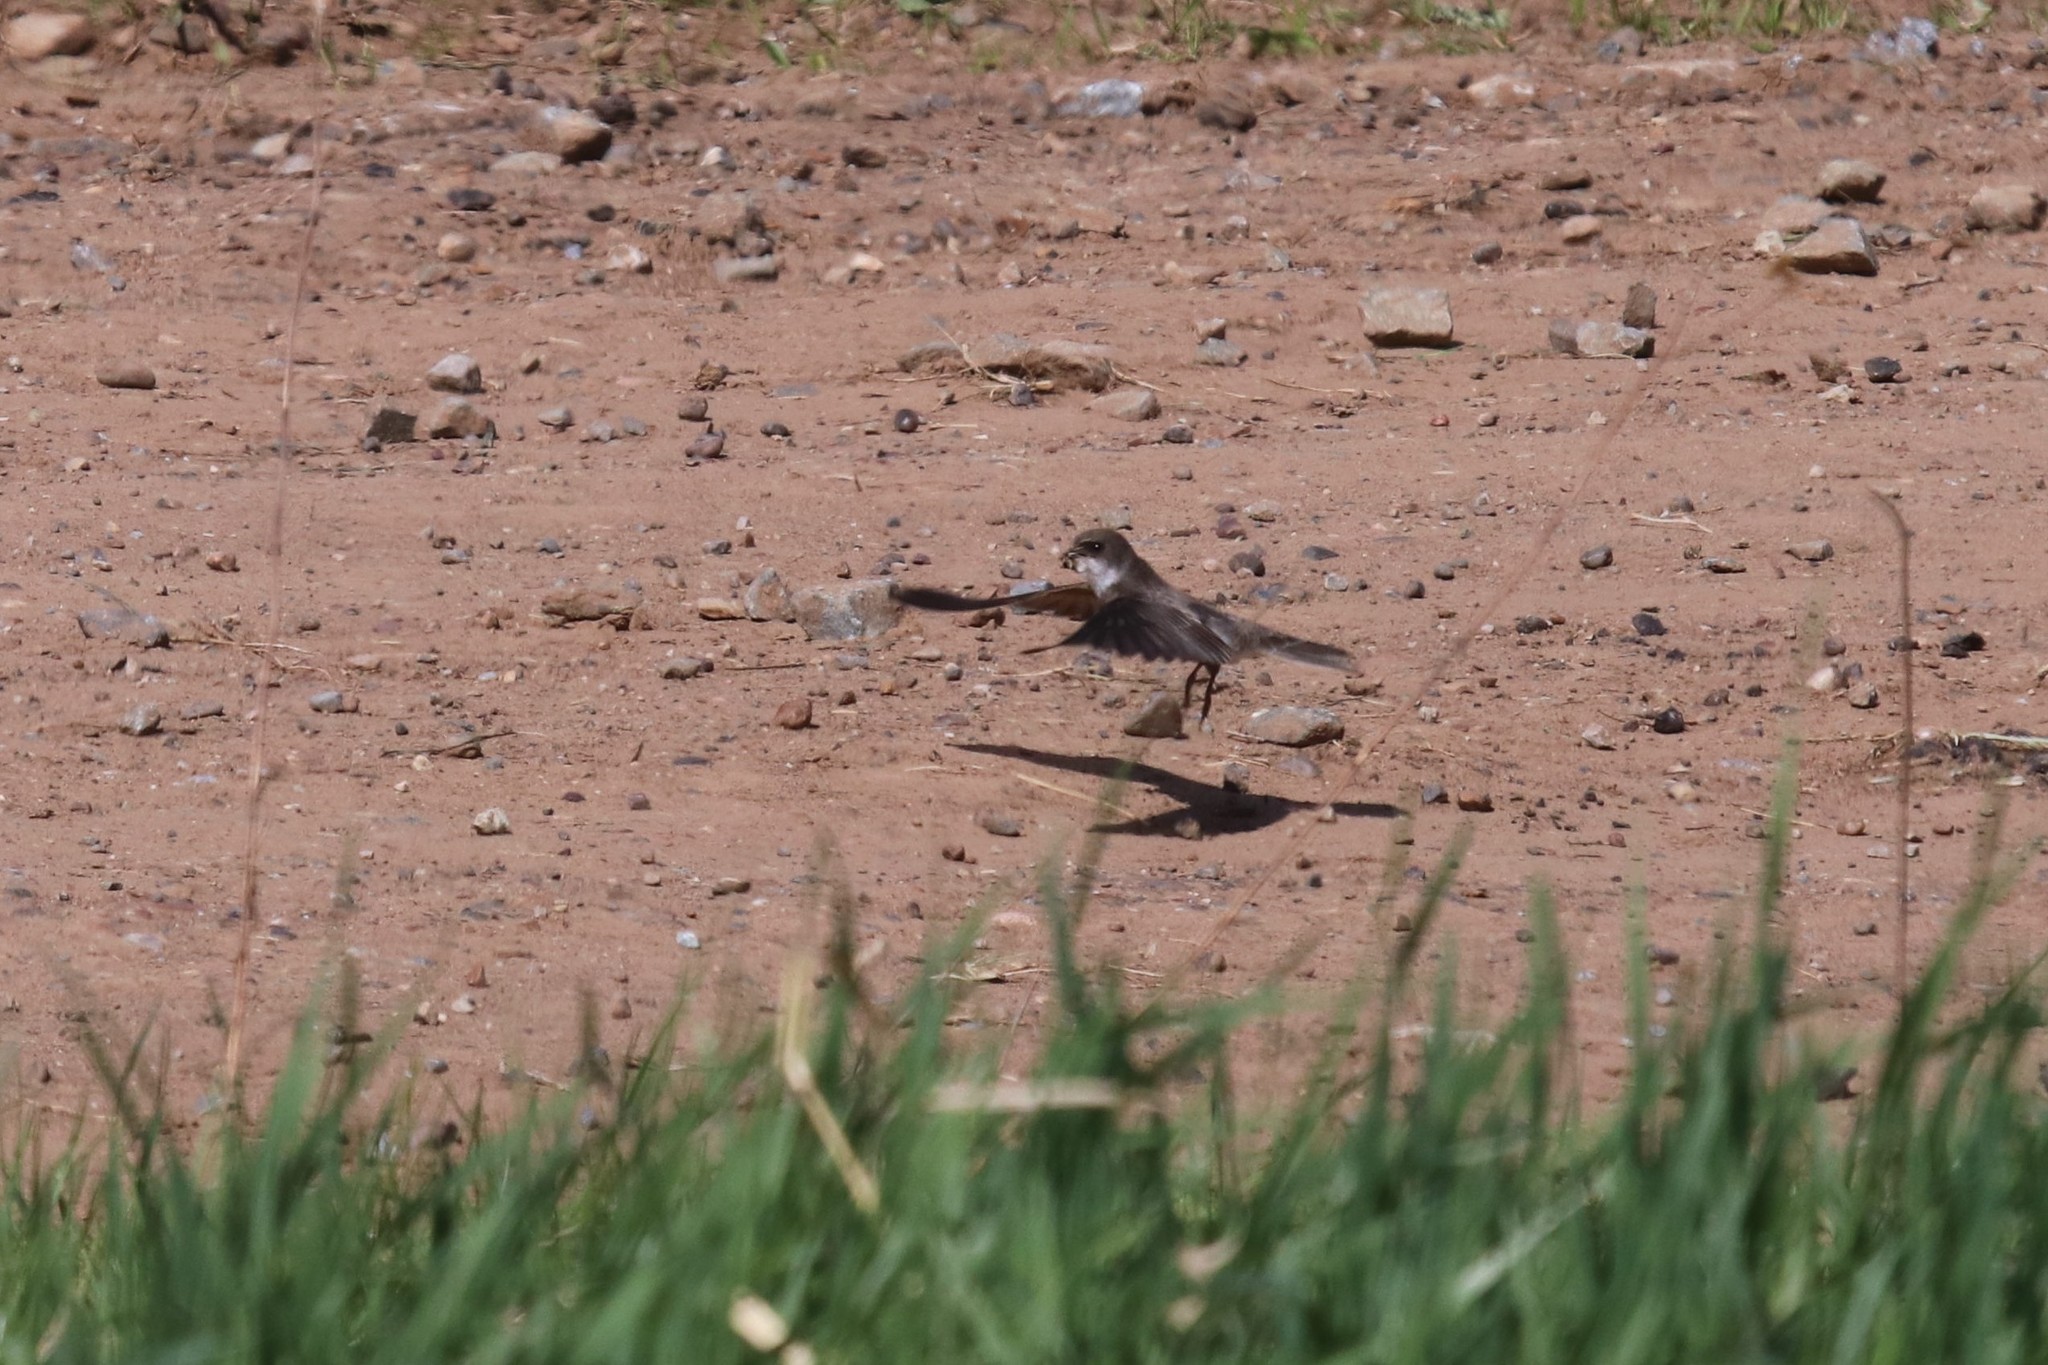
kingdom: Animalia
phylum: Chordata
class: Aves
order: Passeriformes
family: Hirundinidae
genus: Riparia
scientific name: Riparia riparia
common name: Sand martin
